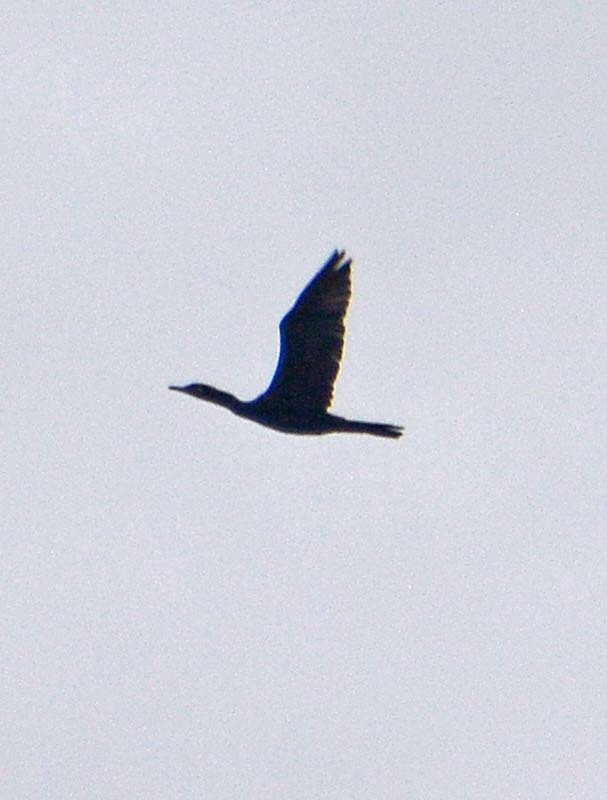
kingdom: Animalia
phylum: Chordata
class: Aves
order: Suliformes
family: Phalacrocoracidae
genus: Phalacrocorax
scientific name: Phalacrocorax brasilianus
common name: Neotropic cormorant
